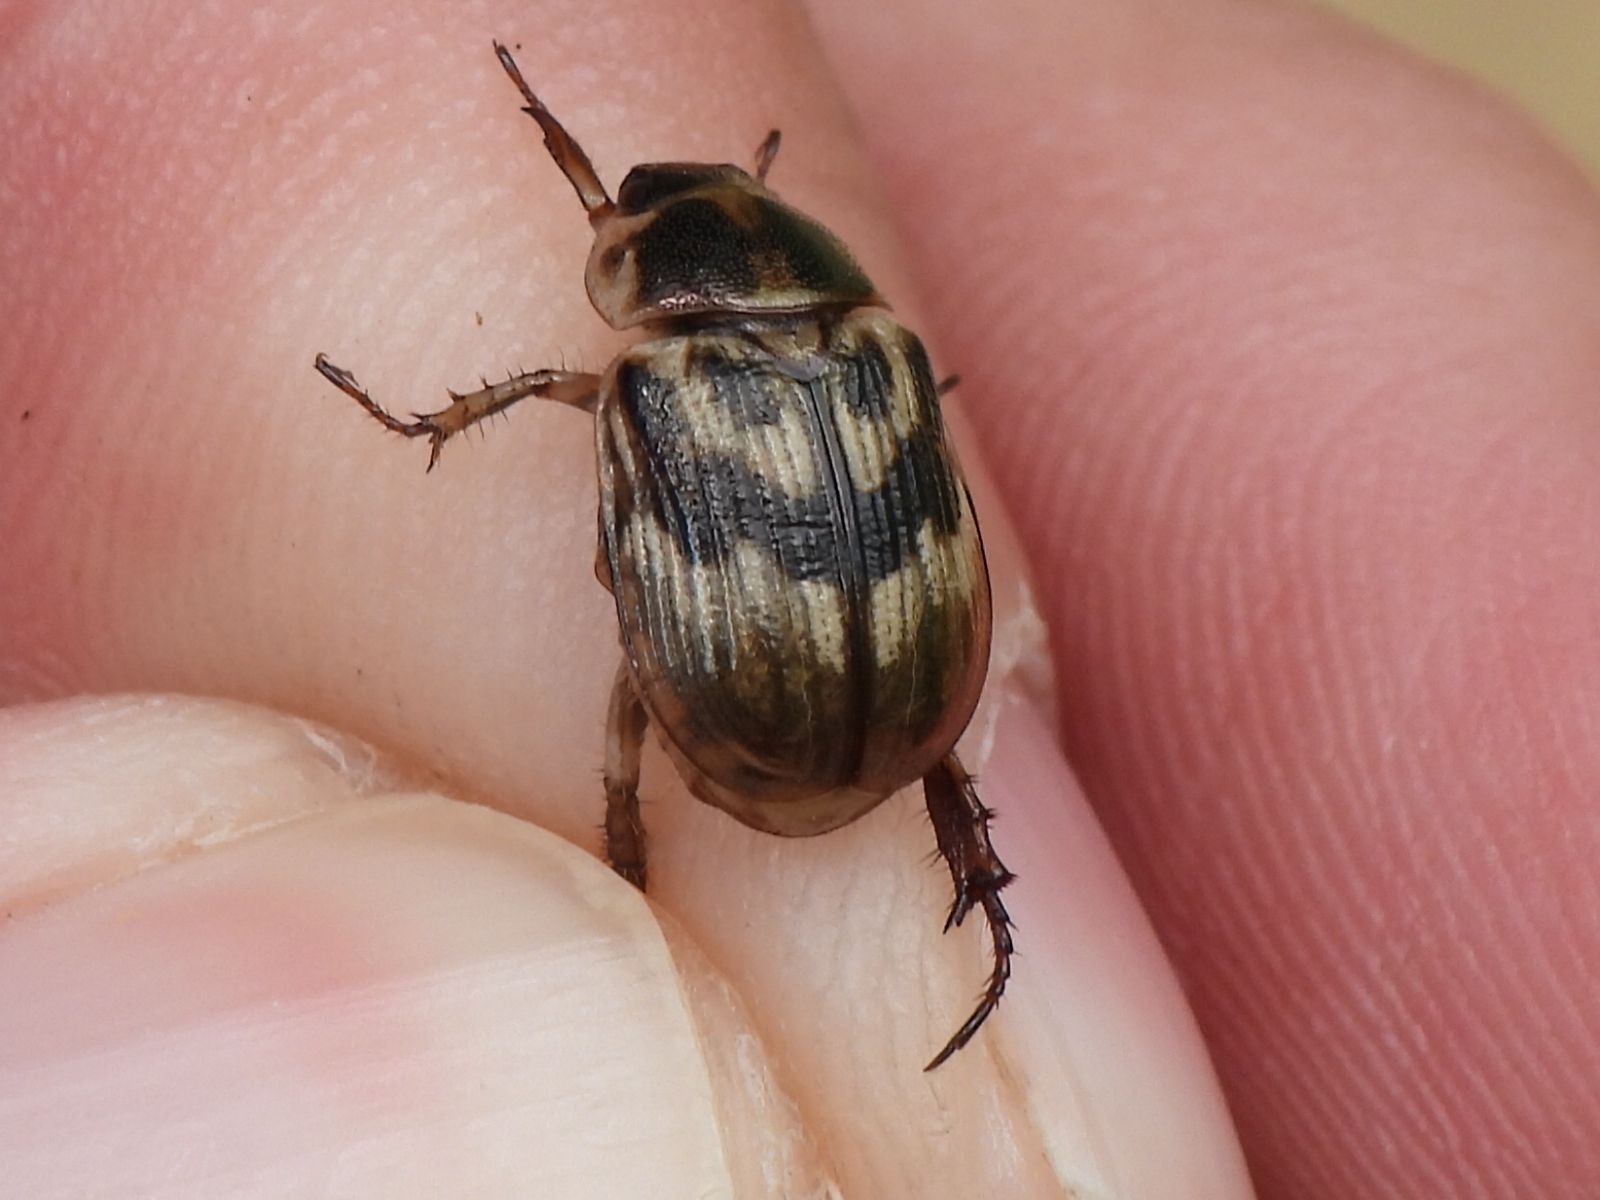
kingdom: Animalia
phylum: Arthropoda
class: Insecta
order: Coleoptera
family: Scarabaeidae
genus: Exomala
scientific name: Exomala orientalis
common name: Oriental beetle
